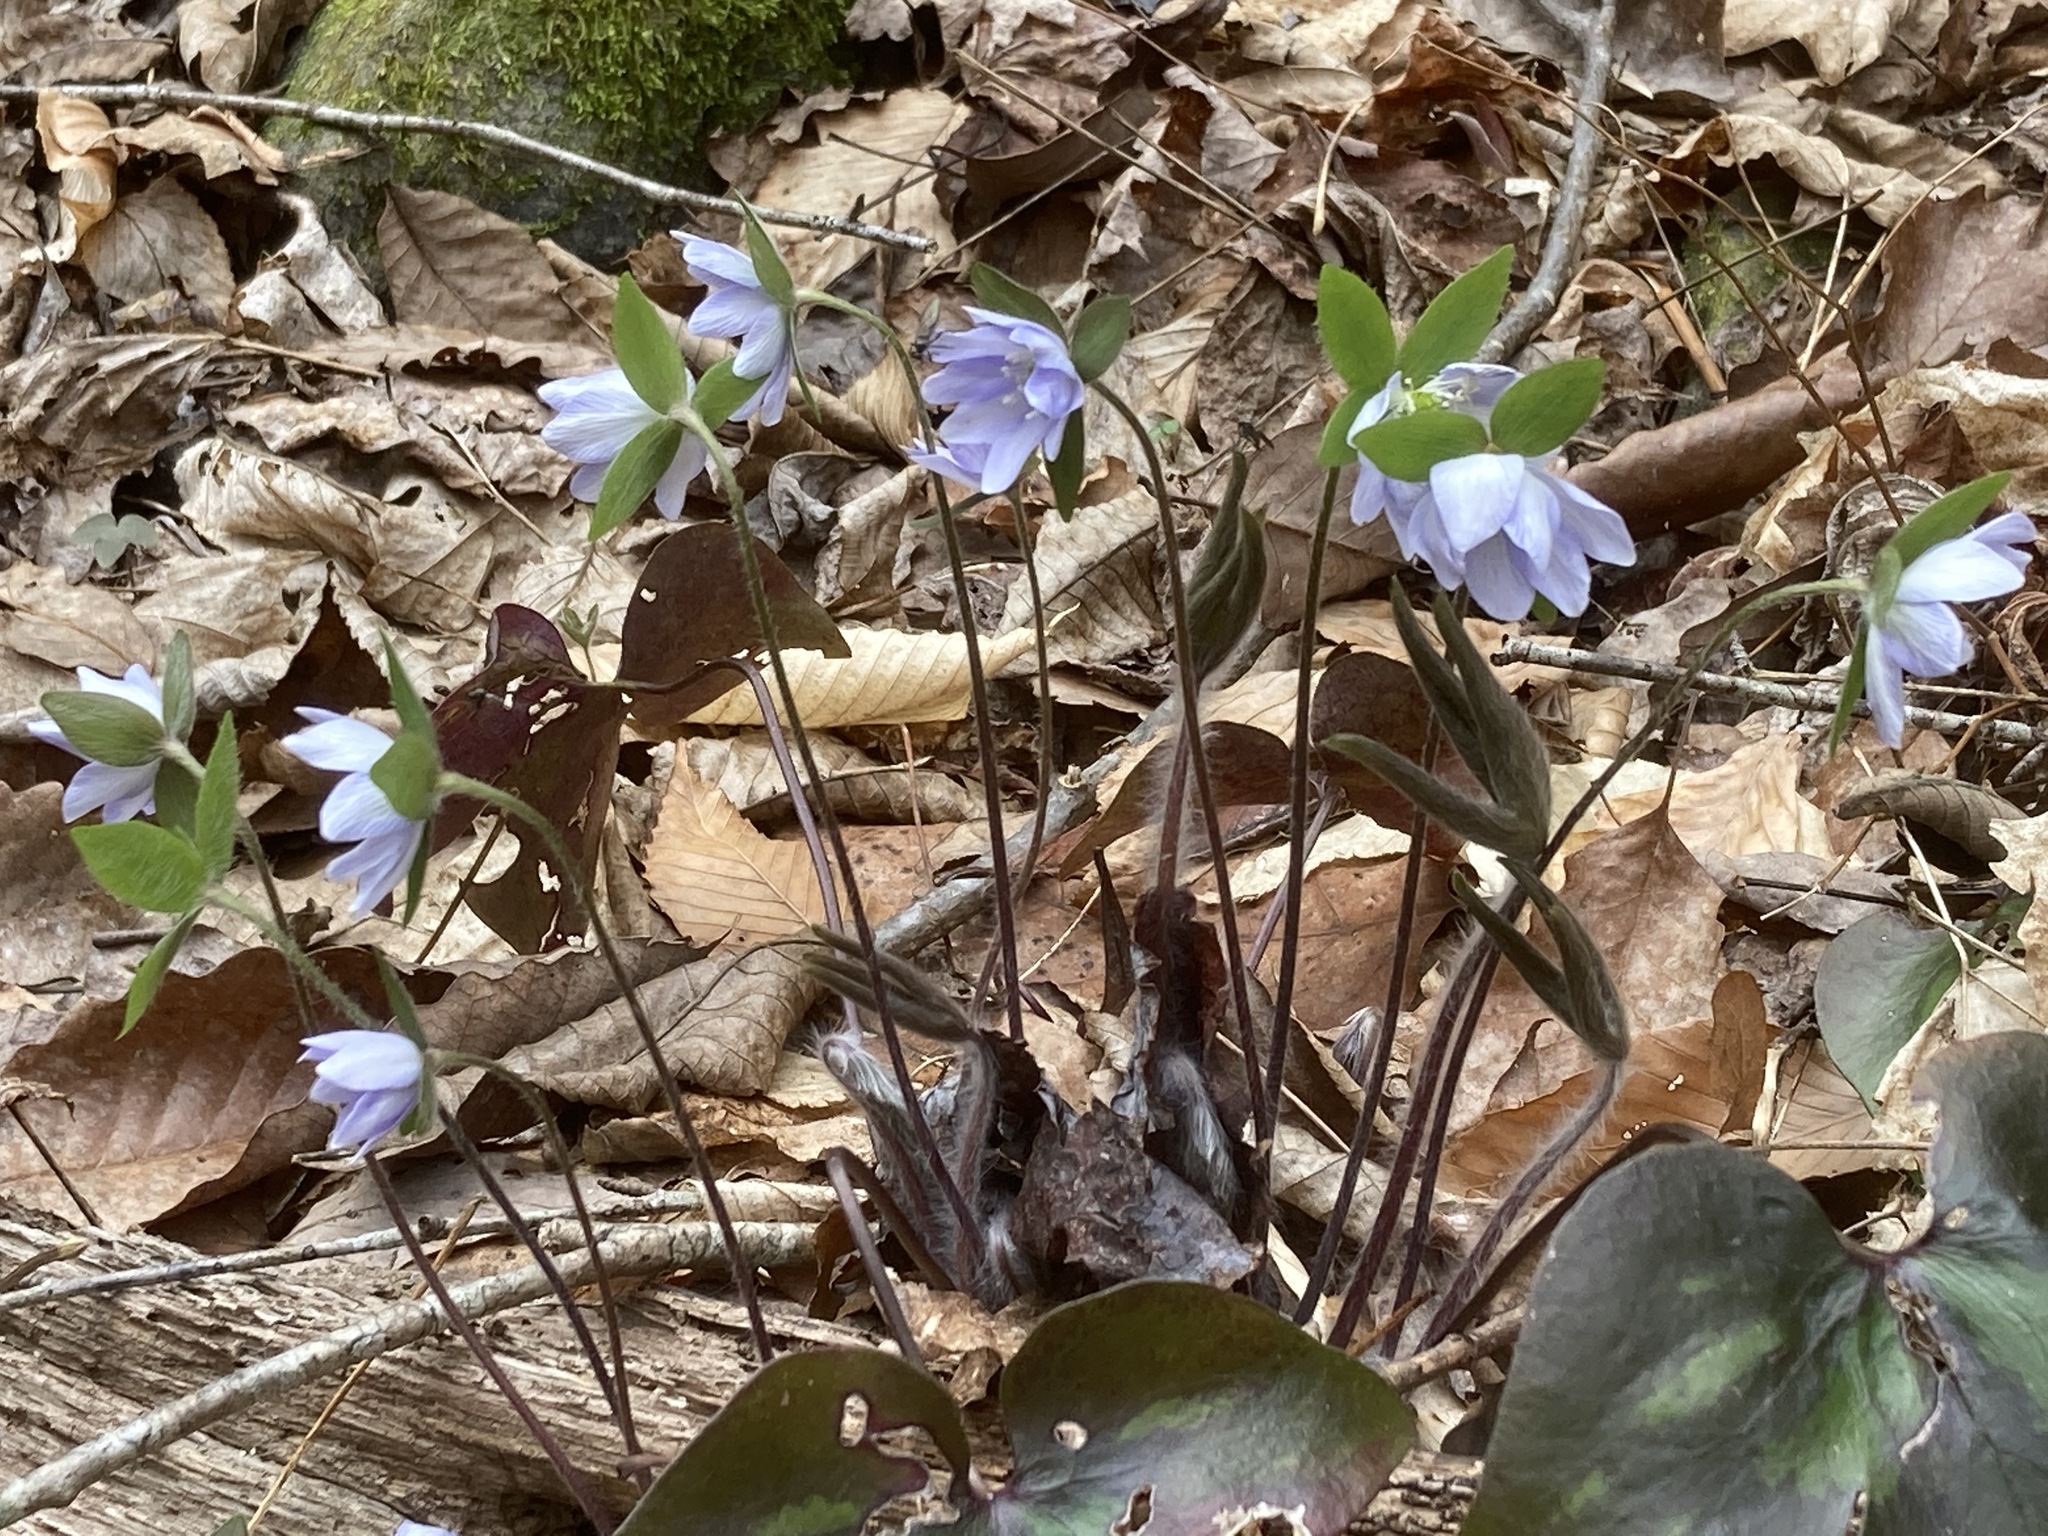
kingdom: Plantae
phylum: Tracheophyta
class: Magnoliopsida
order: Ranunculales
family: Ranunculaceae
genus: Hepatica
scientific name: Hepatica acutiloba
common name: Sharp-lobed hepatica
